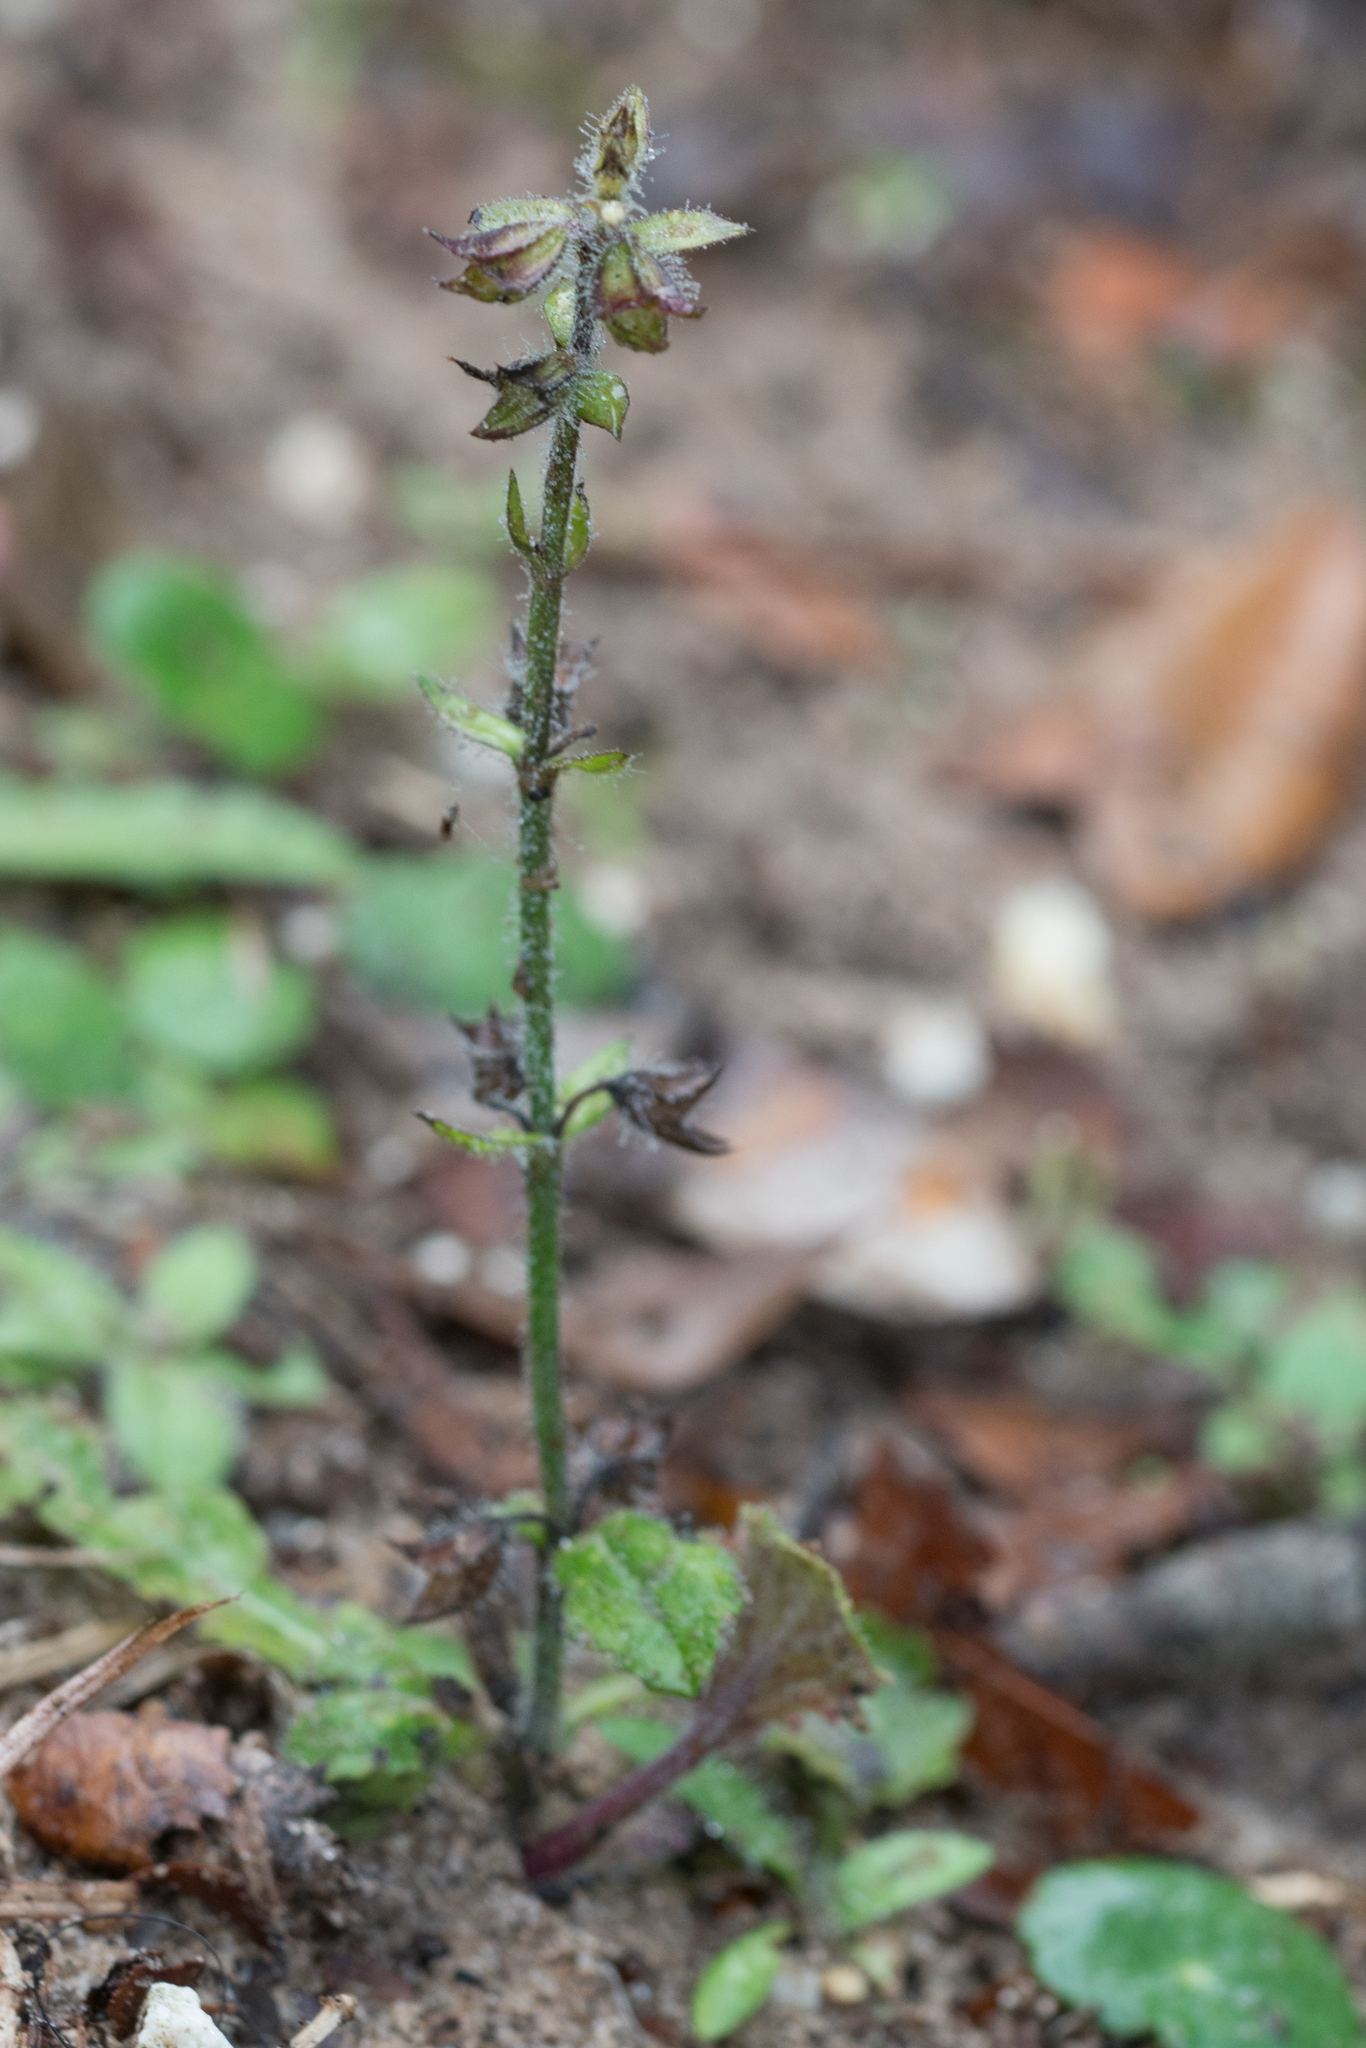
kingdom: Plantae
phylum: Tracheophyta
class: Magnoliopsida
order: Lamiales
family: Lamiaceae
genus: Salvia
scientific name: Salvia lyrata
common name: Cancerweed
